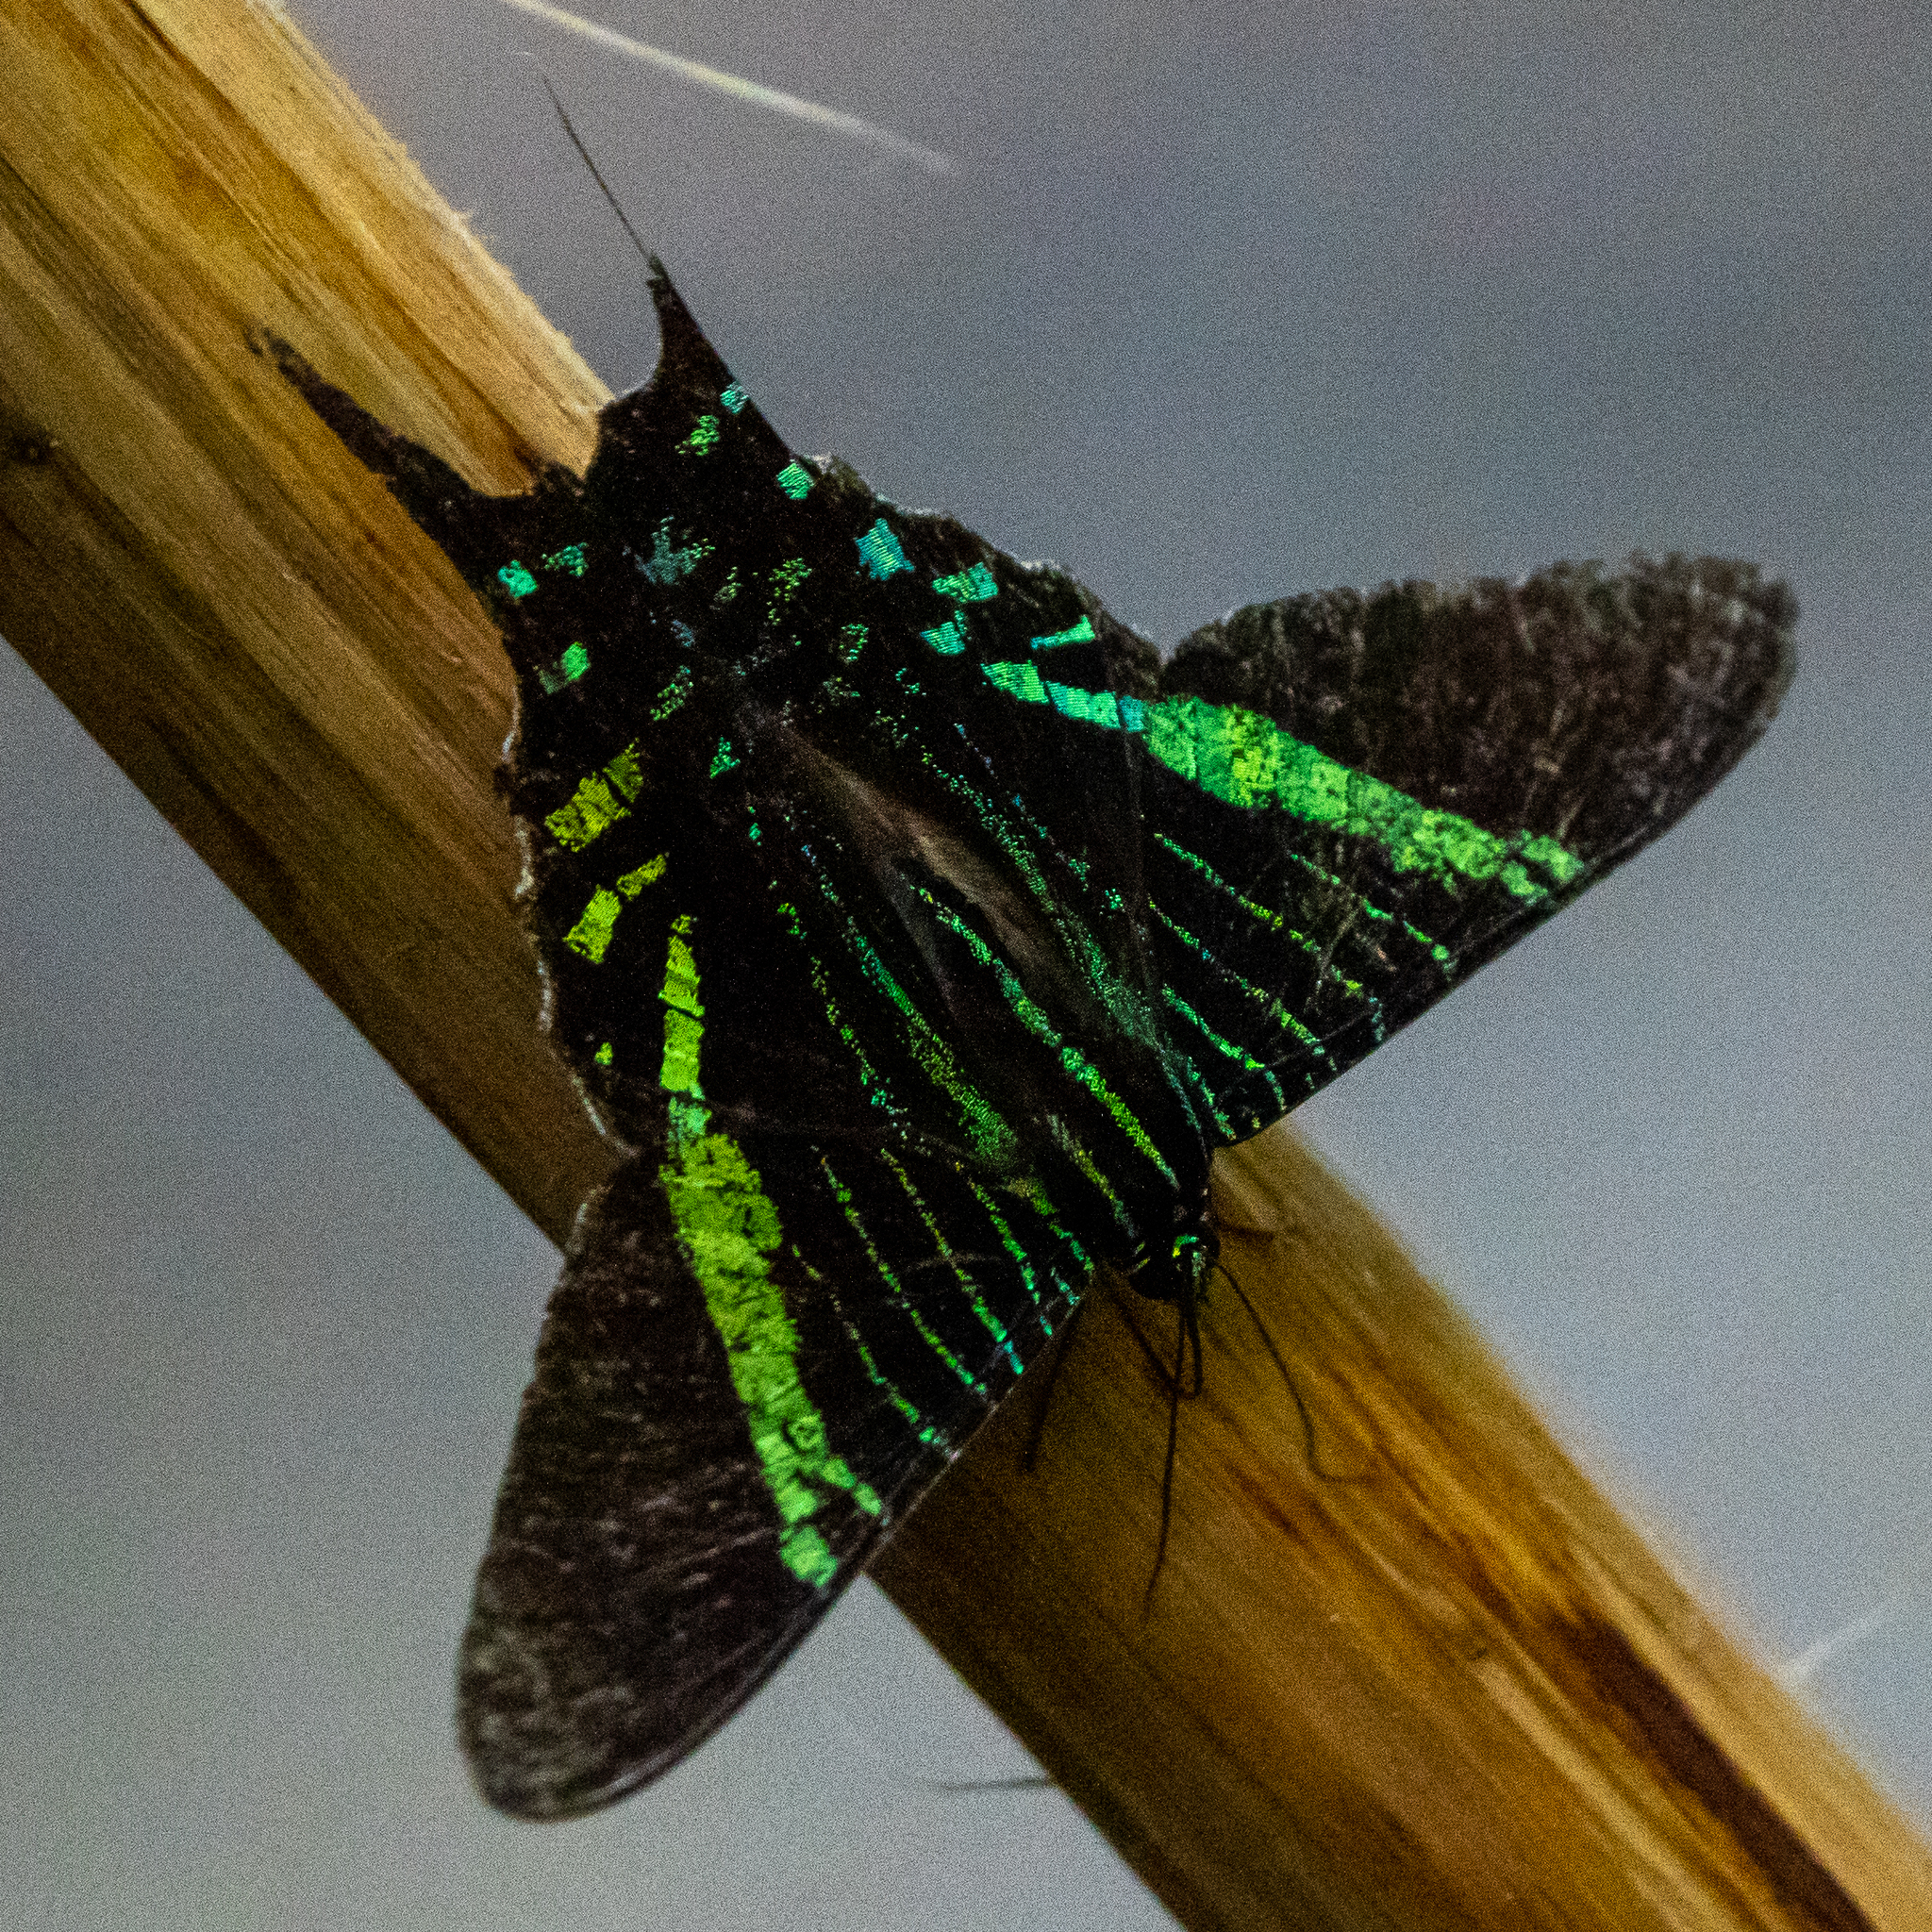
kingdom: Animalia
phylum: Arthropoda
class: Insecta
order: Lepidoptera
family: Uraniidae
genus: Urania
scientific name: Urania fulgens
